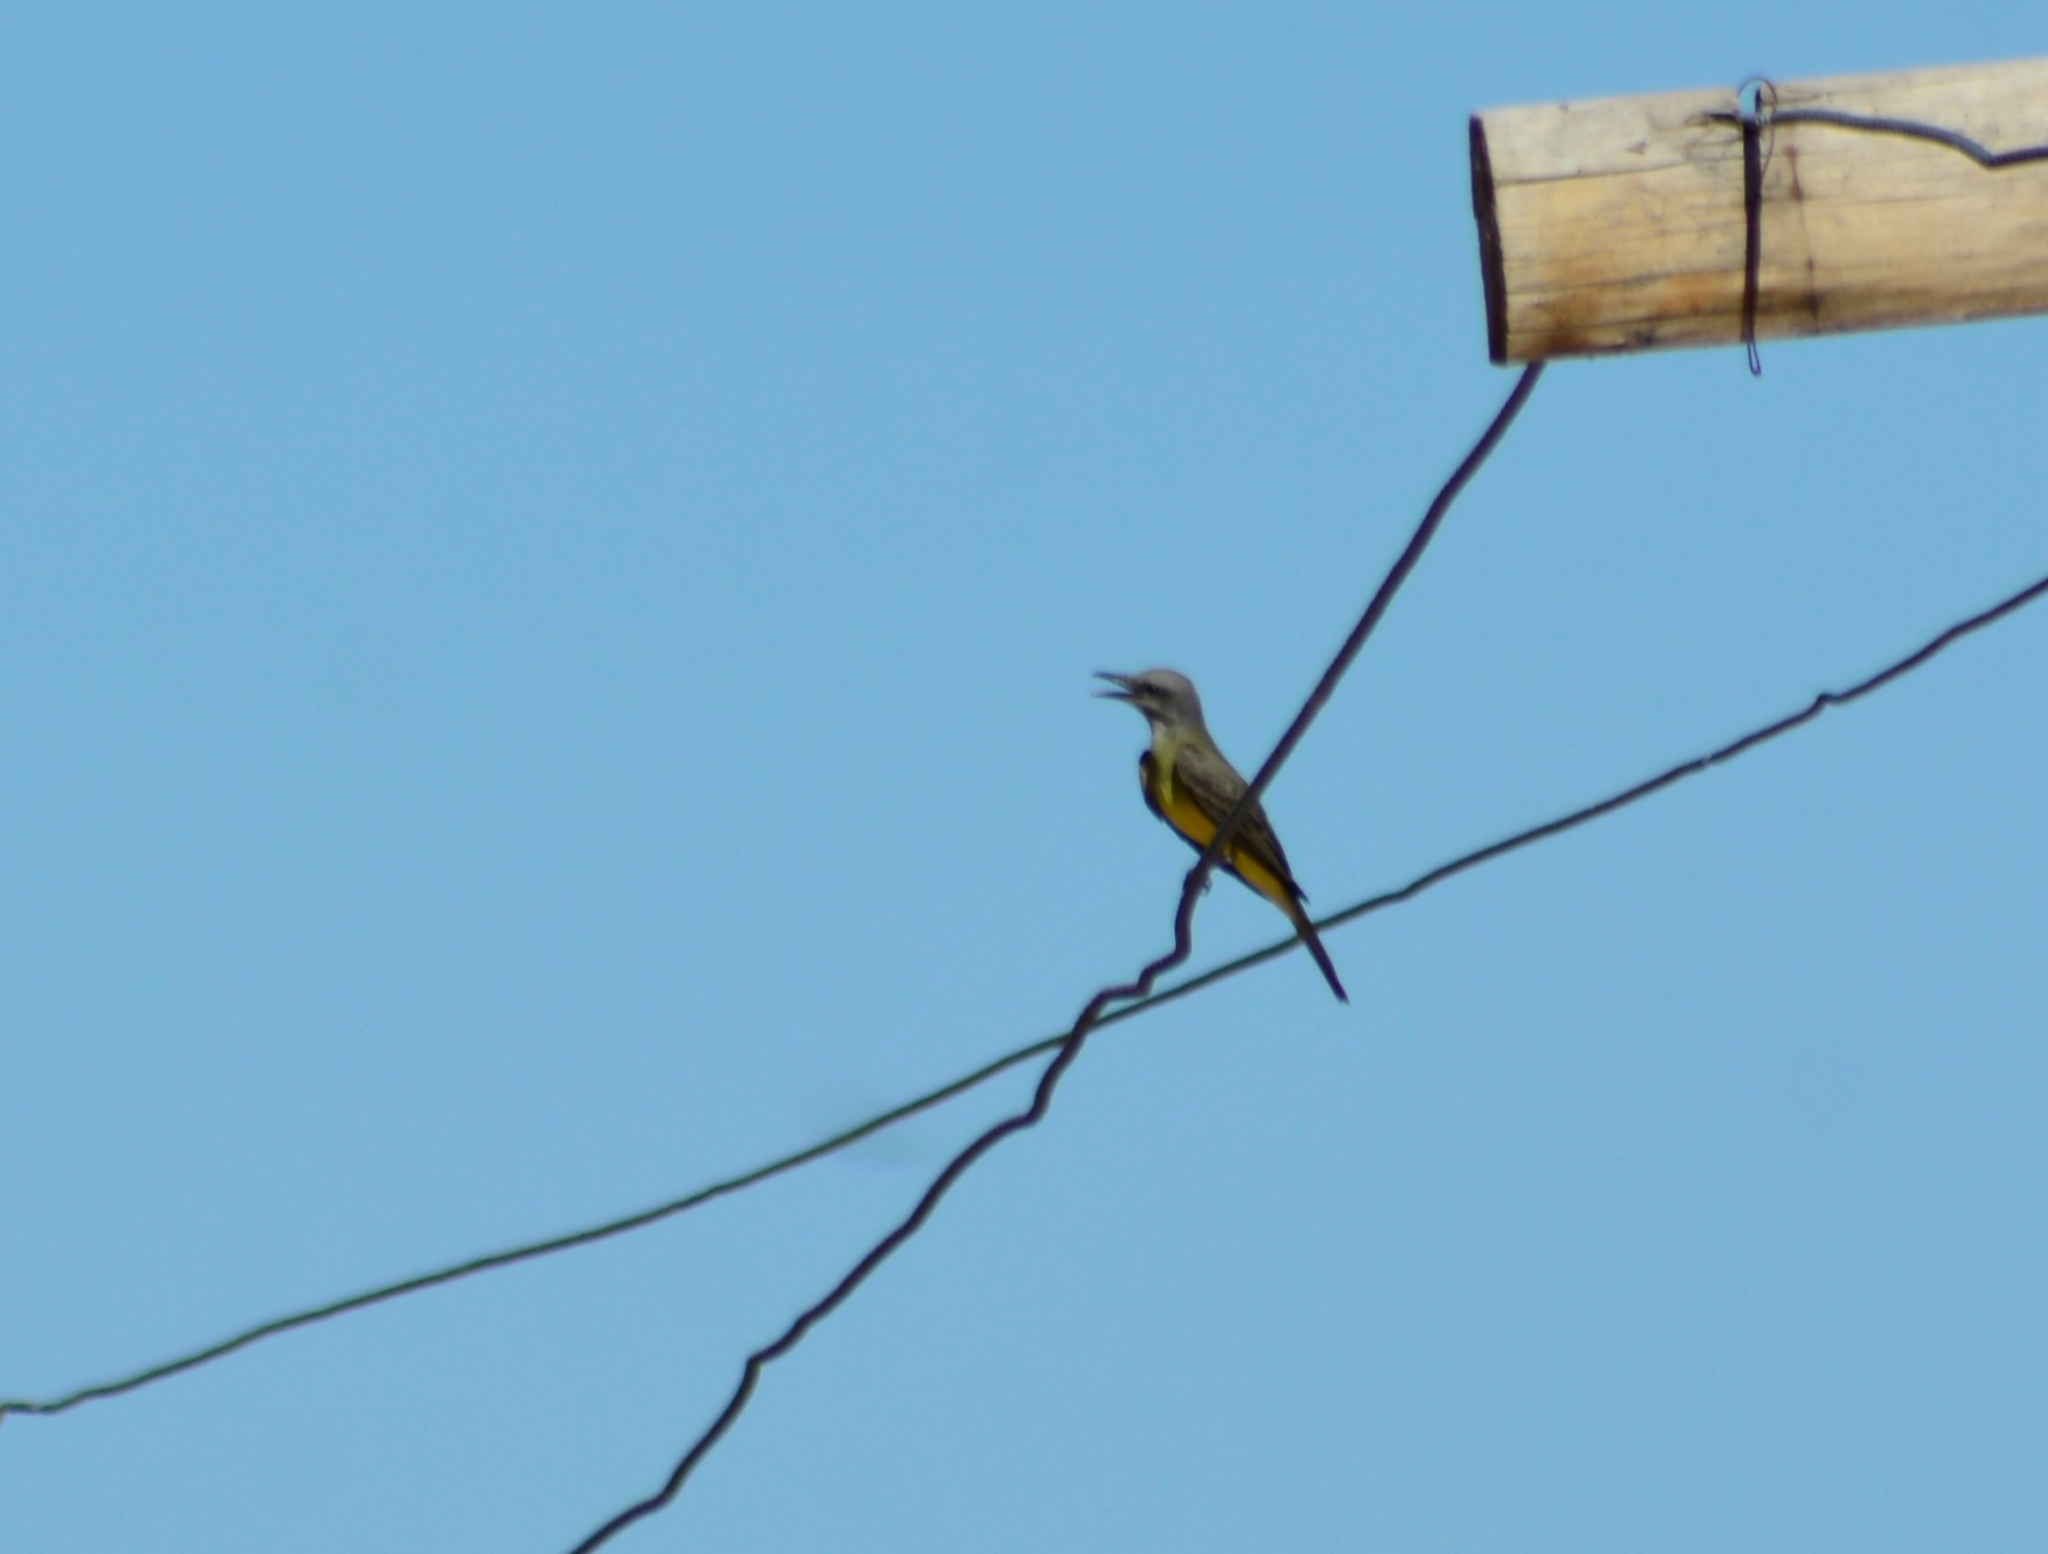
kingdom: Animalia
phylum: Chordata
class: Aves
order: Passeriformes
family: Tyrannidae
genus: Tyrannus
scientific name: Tyrannus melancholicus
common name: Tropical kingbird
